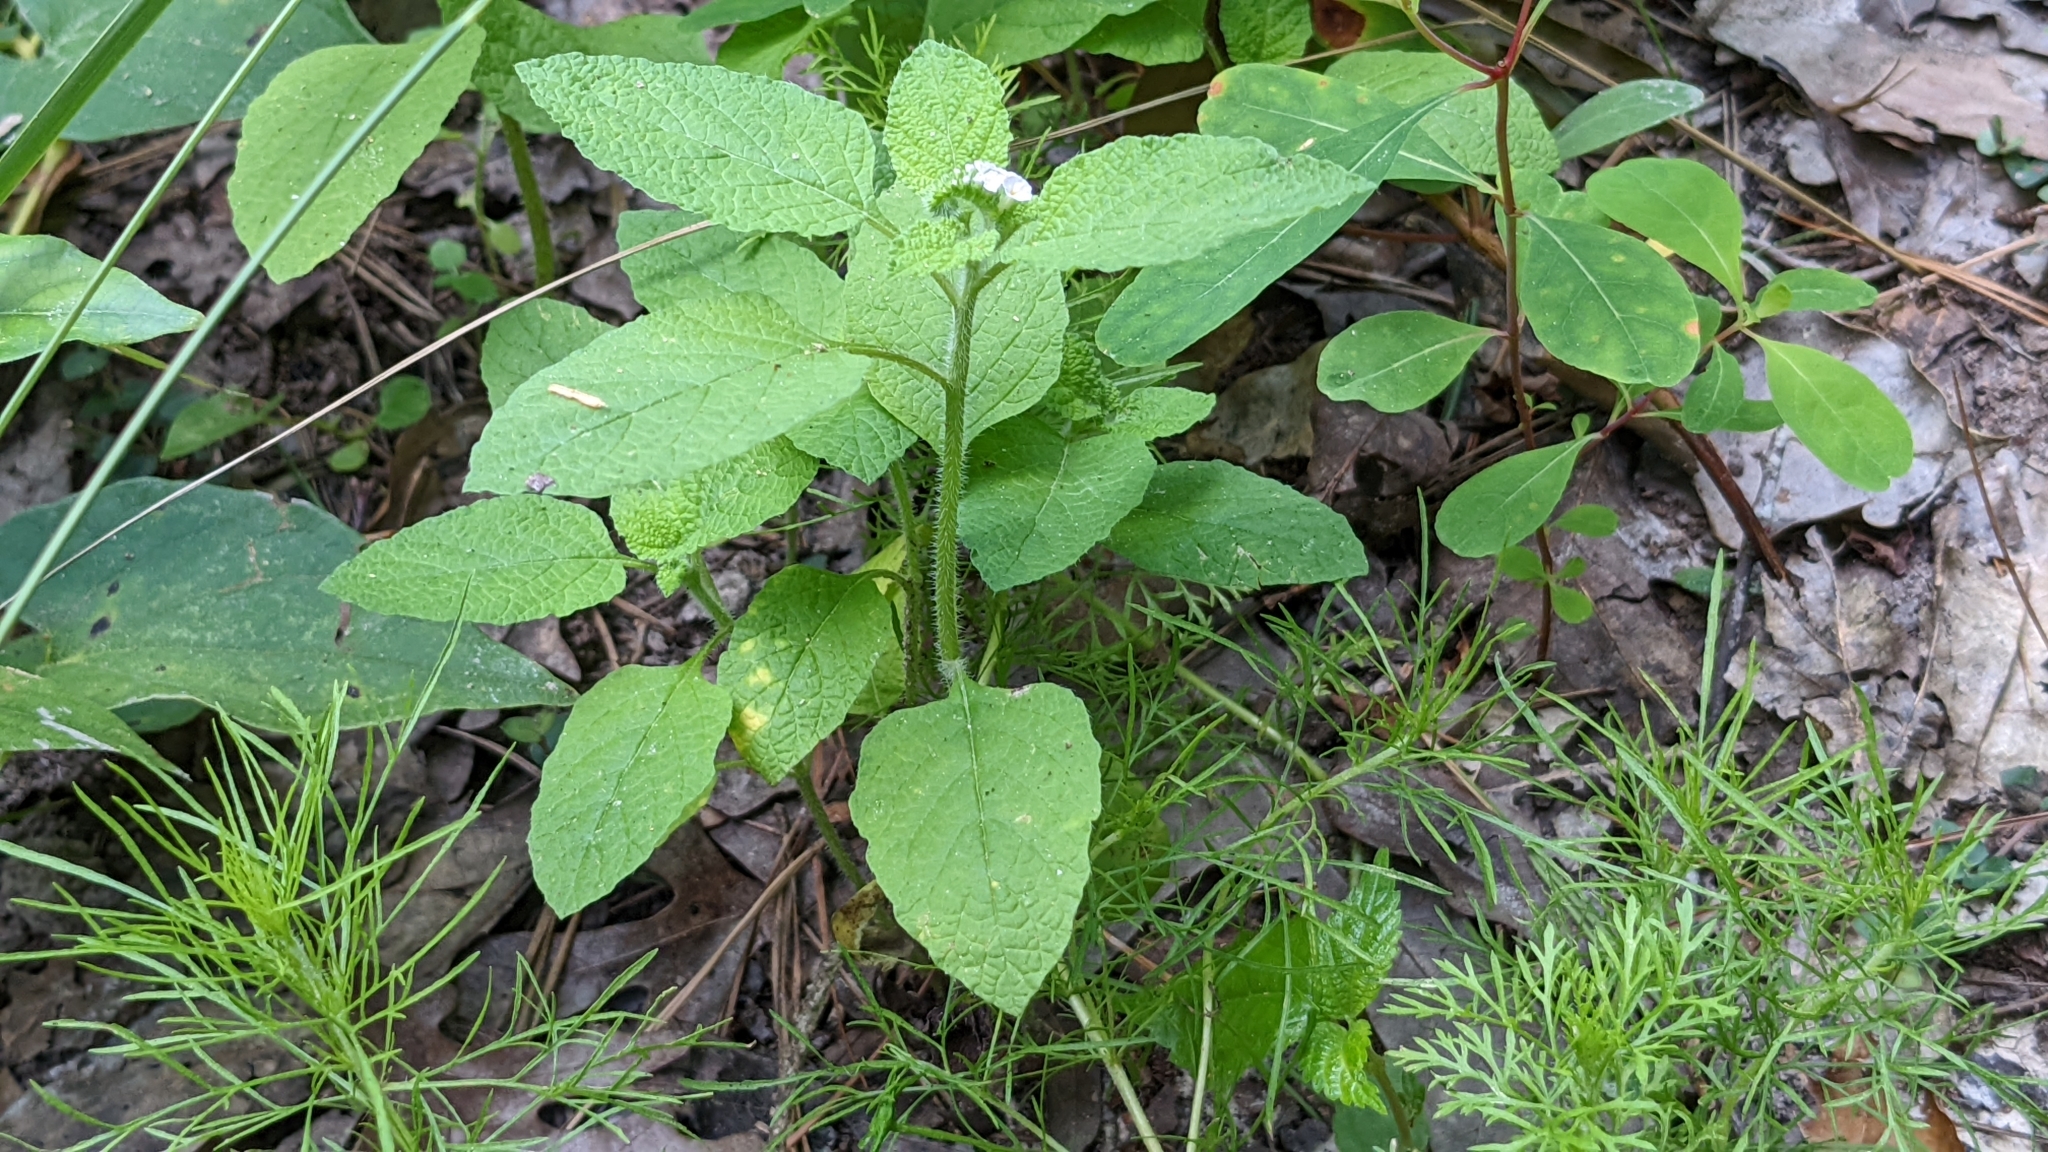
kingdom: Plantae
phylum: Tracheophyta
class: Magnoliopsida
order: Boraginales
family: Heliotropiaceae
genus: Heliotropium
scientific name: Heliotropium indicum
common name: Indian heliotrope
